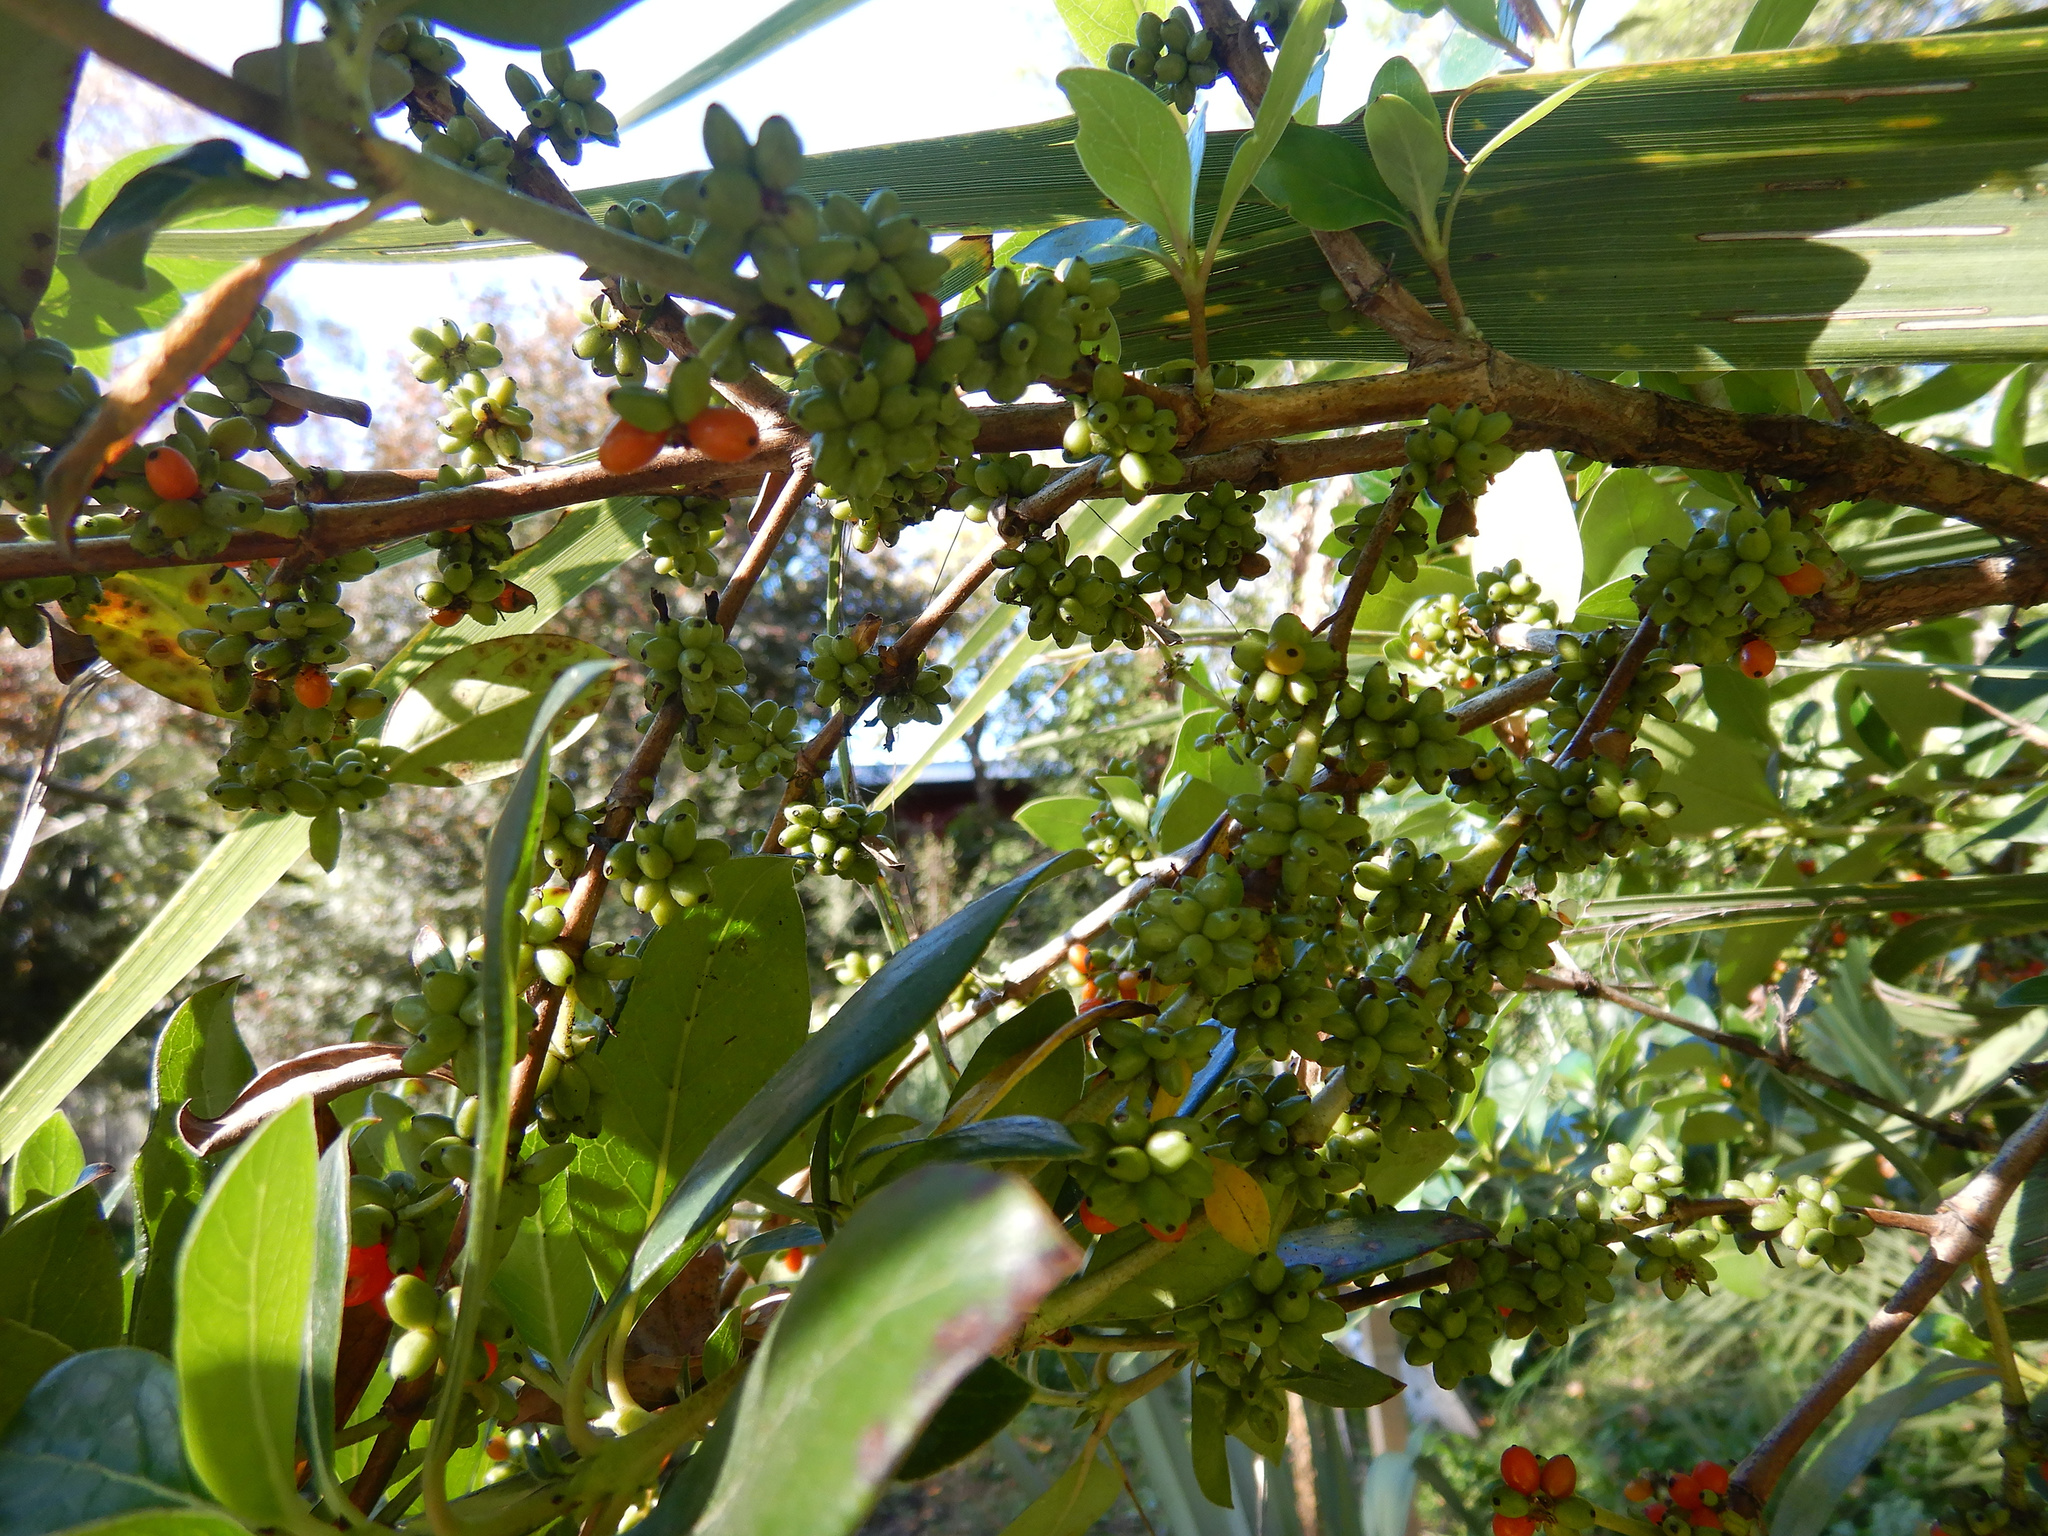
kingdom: Plantae
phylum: Tracheophyta
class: Magnoliopsida
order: Gentianales
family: Rubiaceae
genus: Coprosma
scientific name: Coprosma robusta
